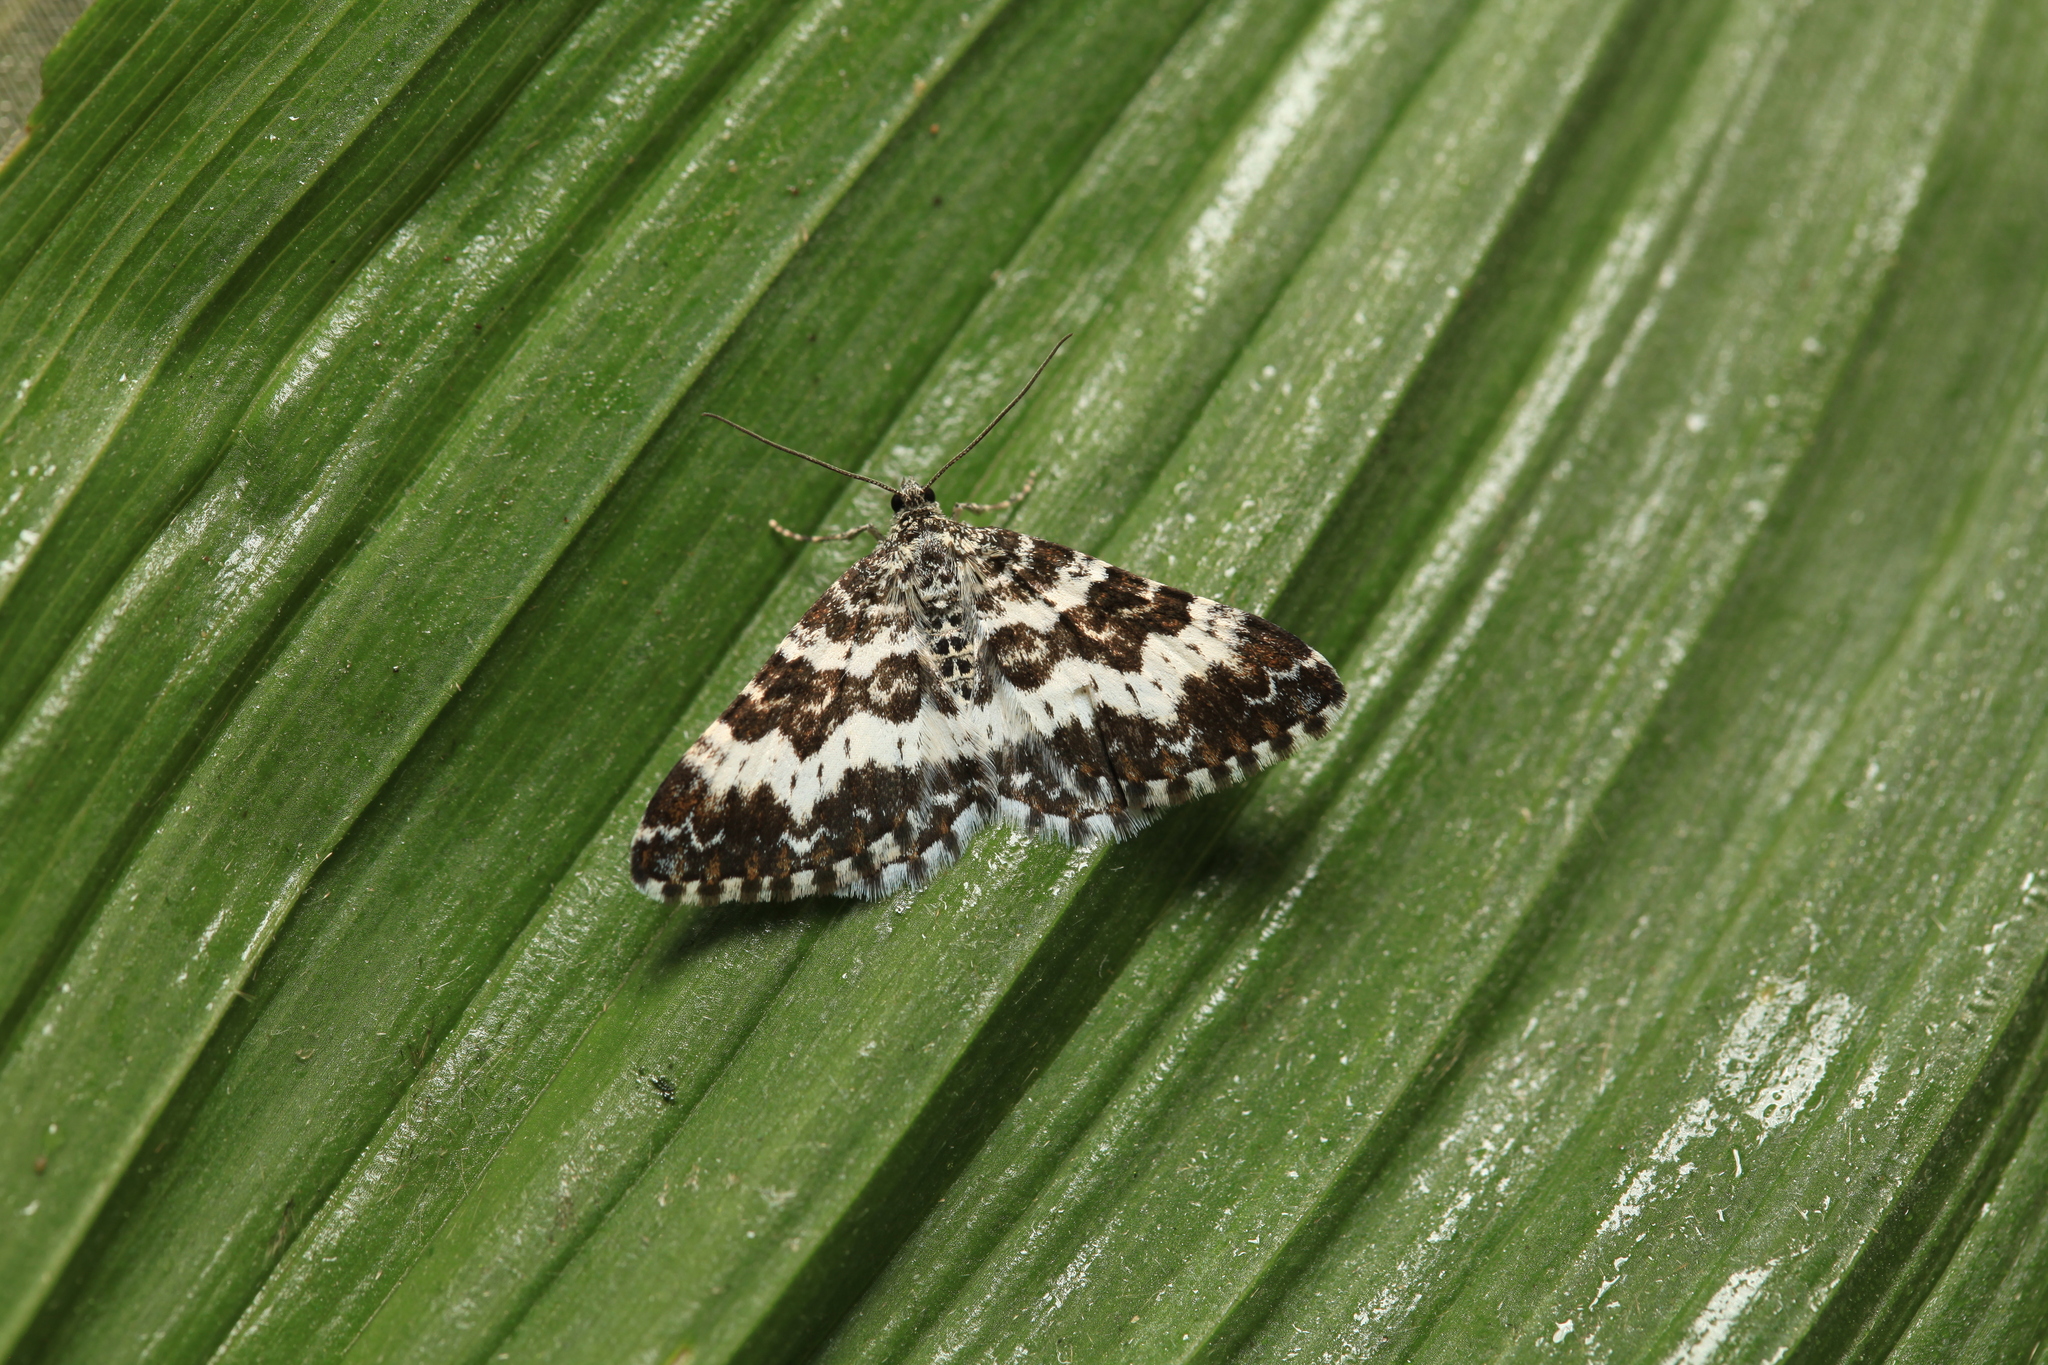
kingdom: Animalia
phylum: Arthropoda
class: Insecta
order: Lepidoptera
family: Geometridae
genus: Epirrhoe
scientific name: Epirrhoe hastulata
